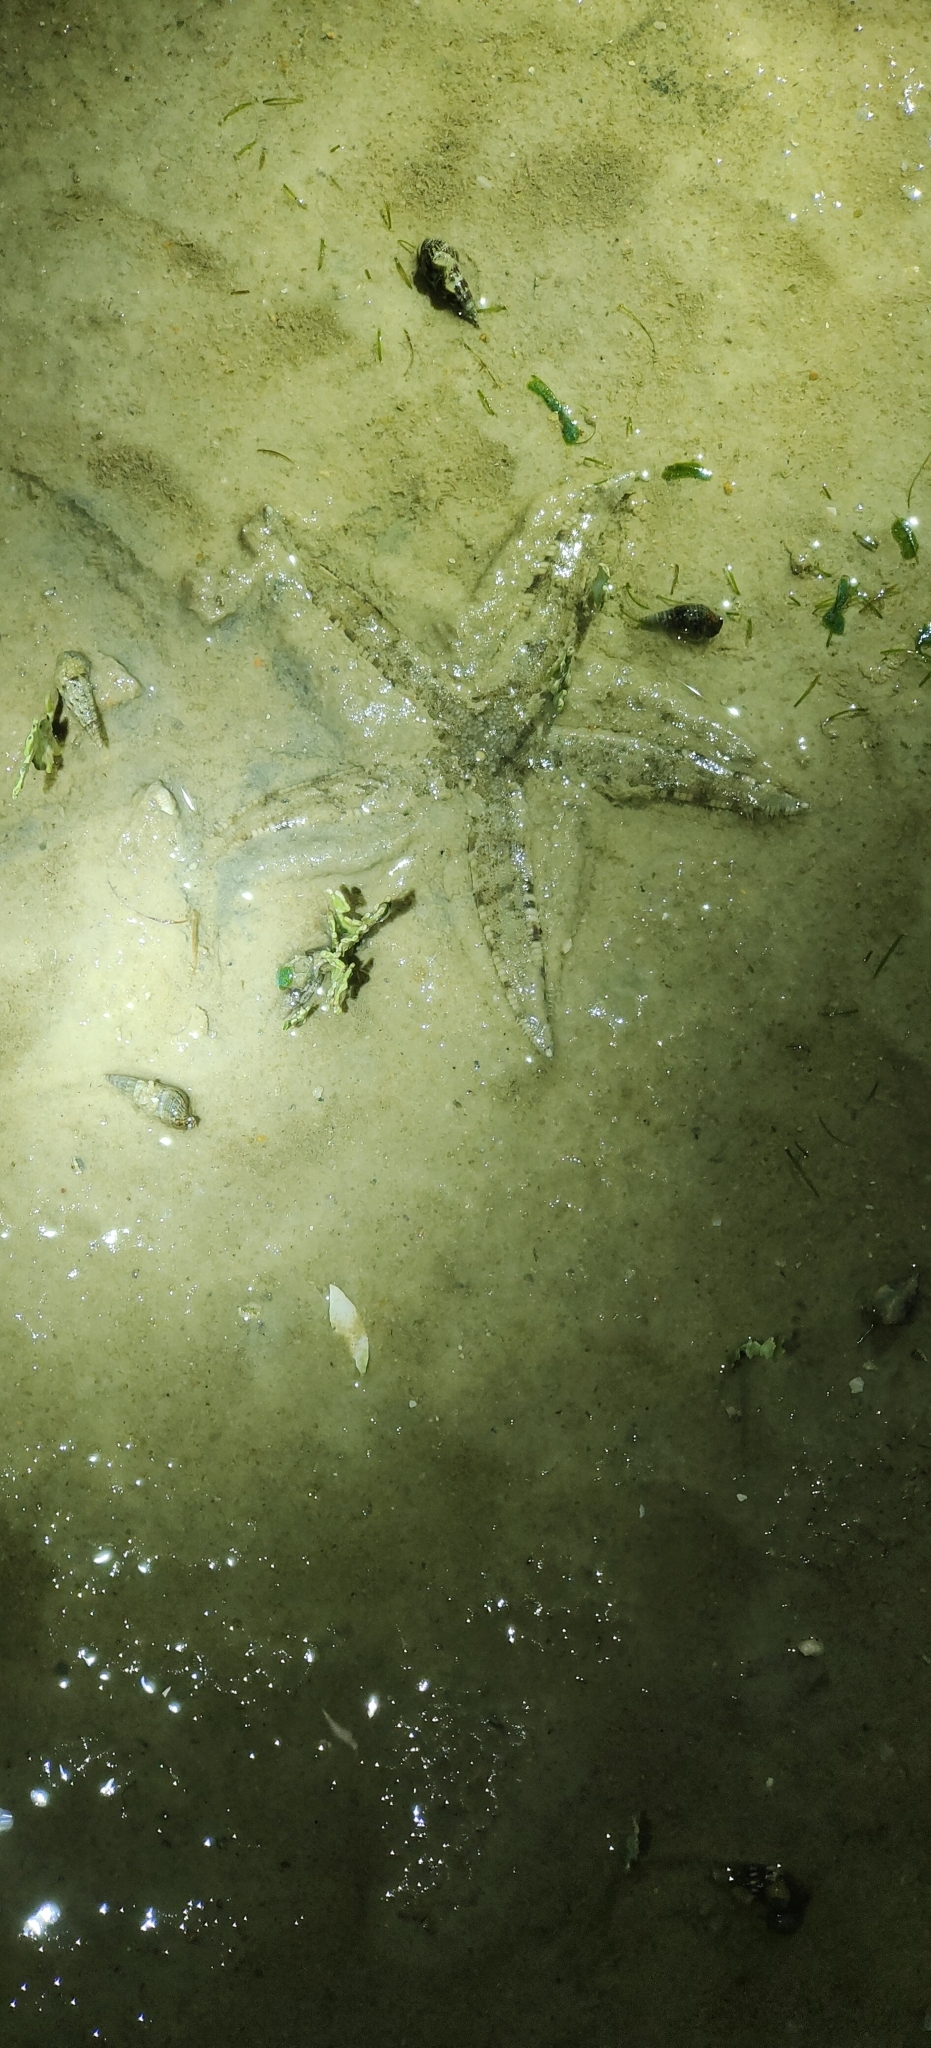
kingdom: Animalia
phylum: Echinodermata
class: Asteroidea
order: Valvatida
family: Archasteridae
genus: Archaster
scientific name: Archaster typicus
